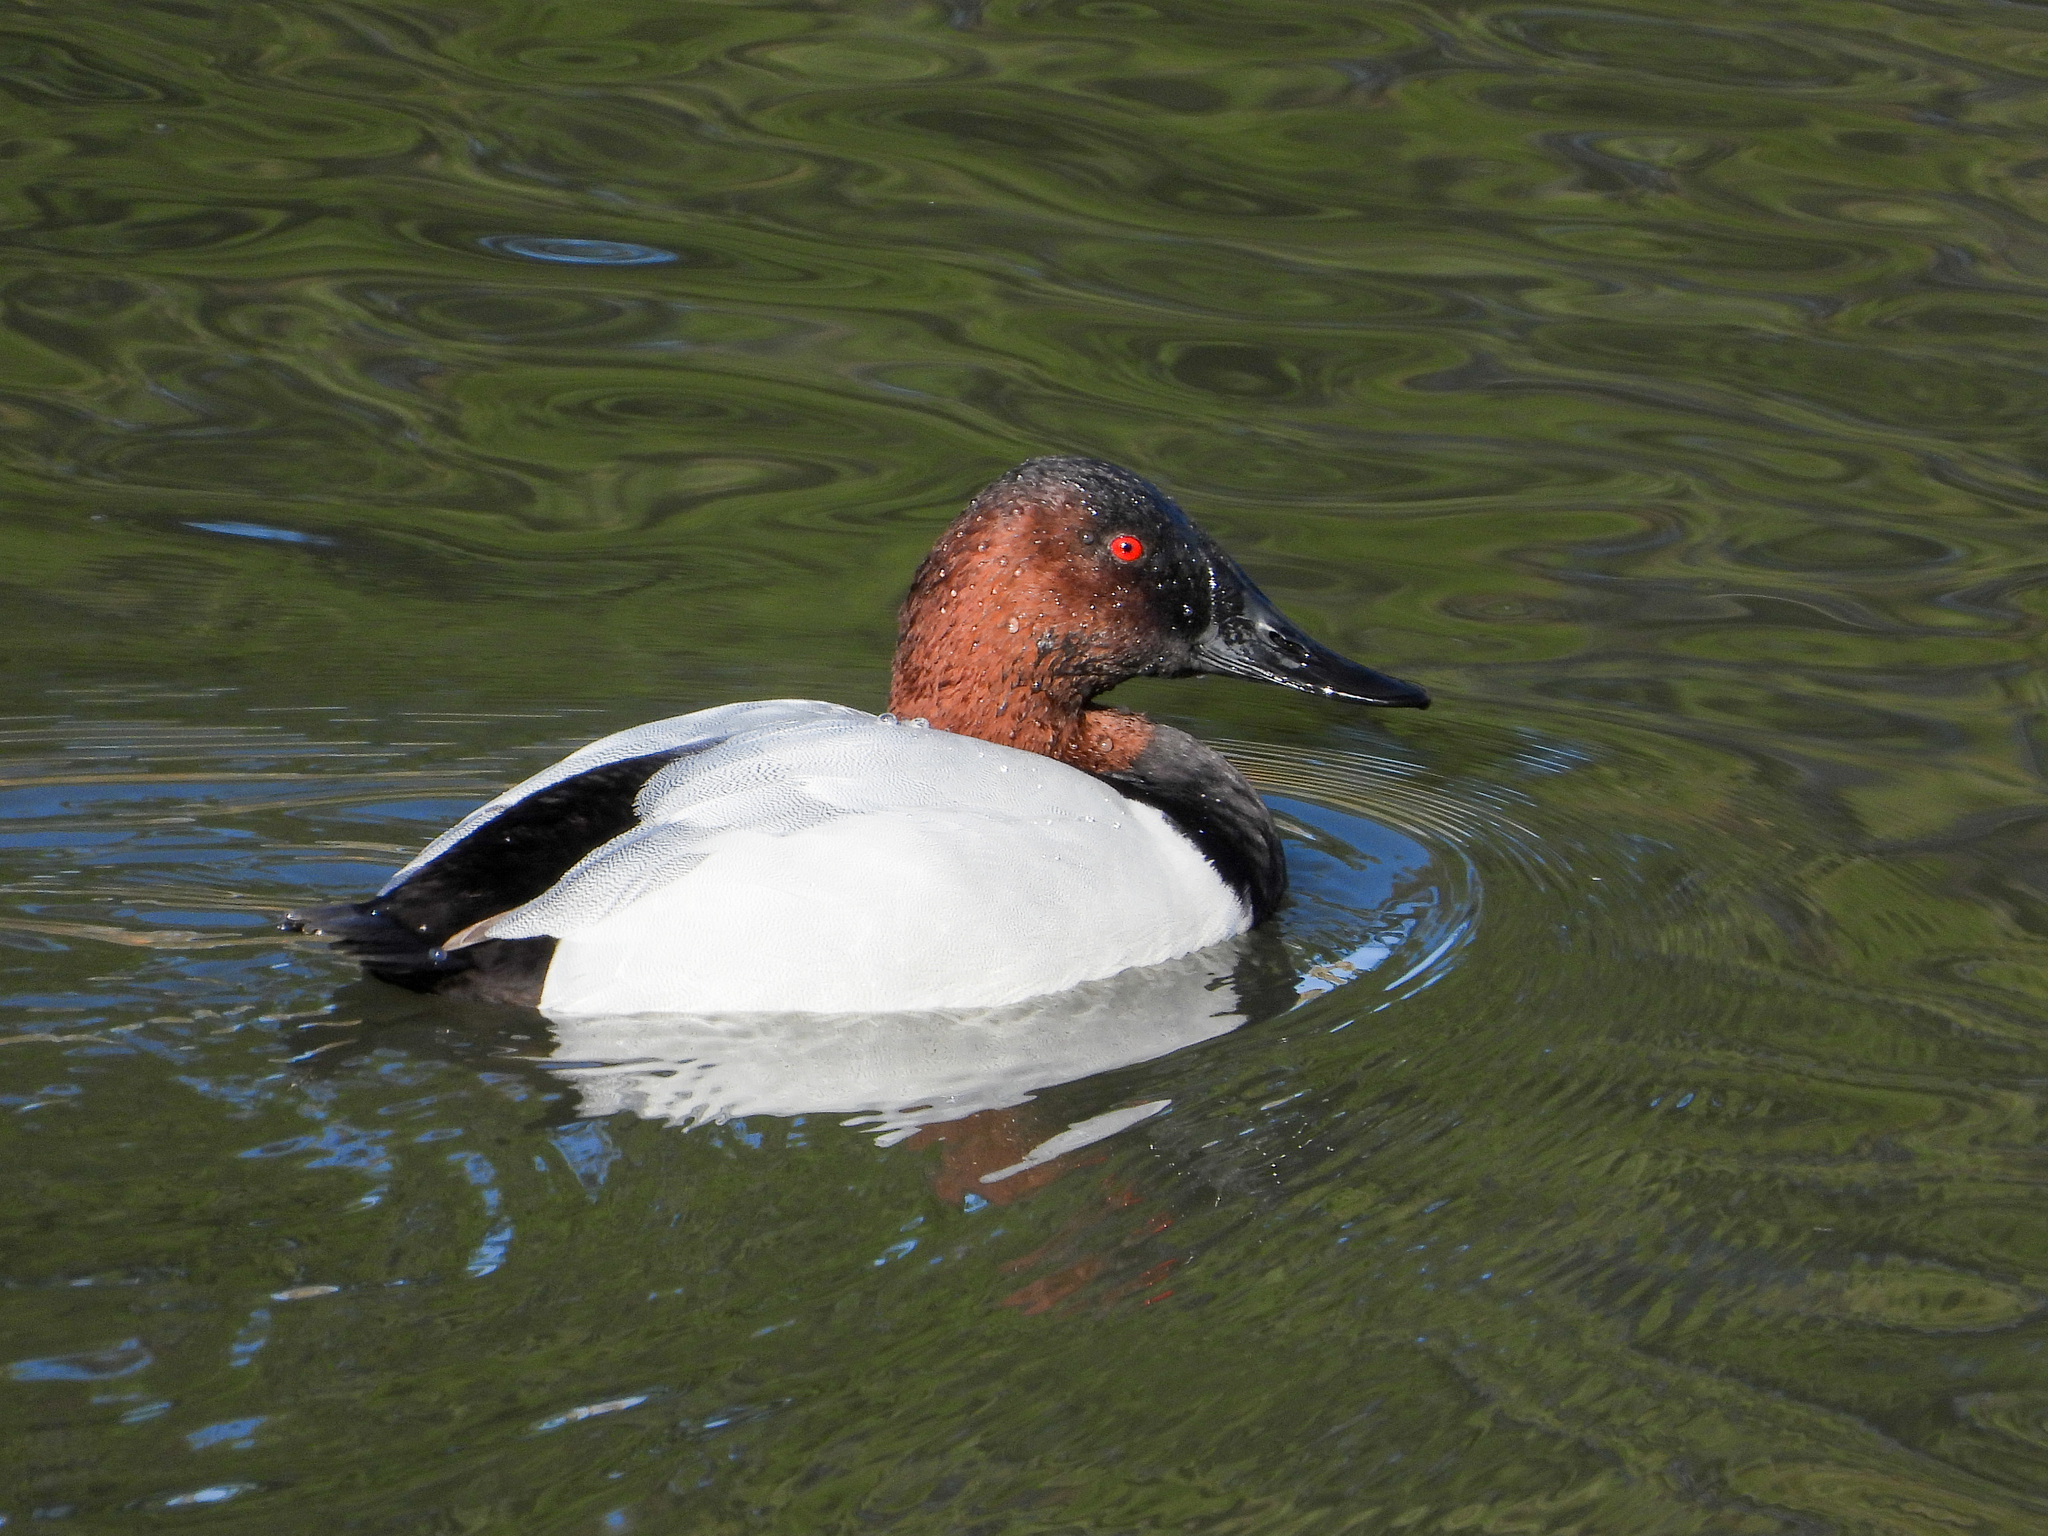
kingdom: Animalia
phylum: Chordata
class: Aves
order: Anseriformes
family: Anatidae
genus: Aythya
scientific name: Aythya valisineria
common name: Canvasback
